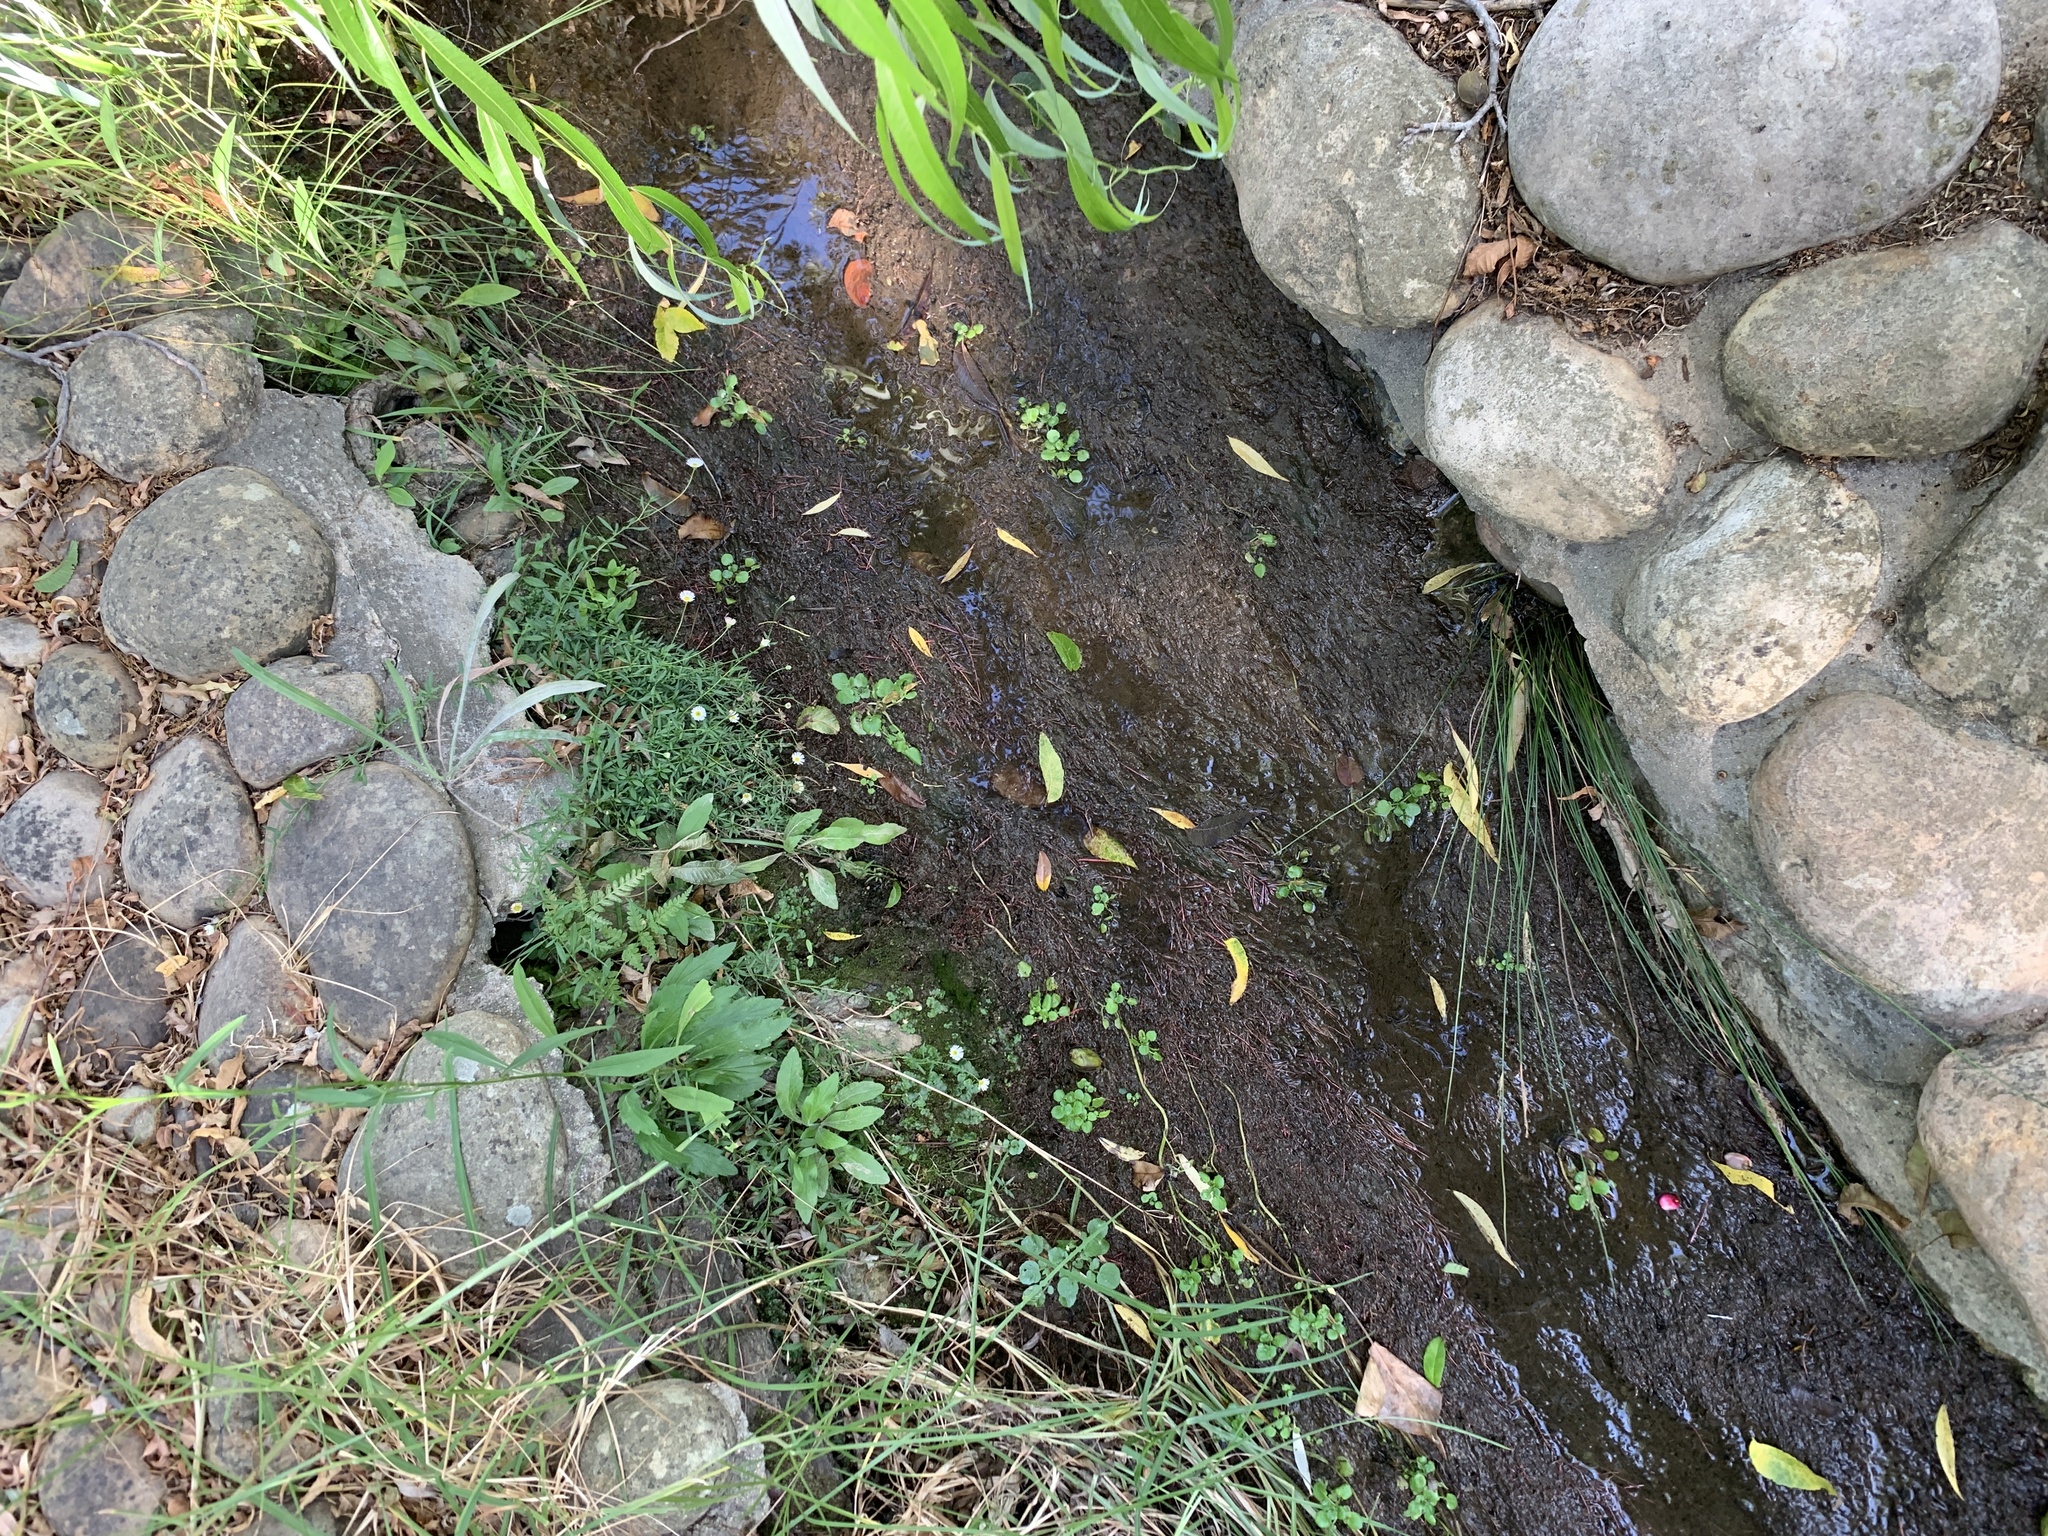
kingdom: Plantae
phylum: Tracheophyta
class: Magnoliopsida
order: Asterales
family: Asteraceae
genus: Erigeron
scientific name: Erigeron karvinskianus
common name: Mexican fleabane
